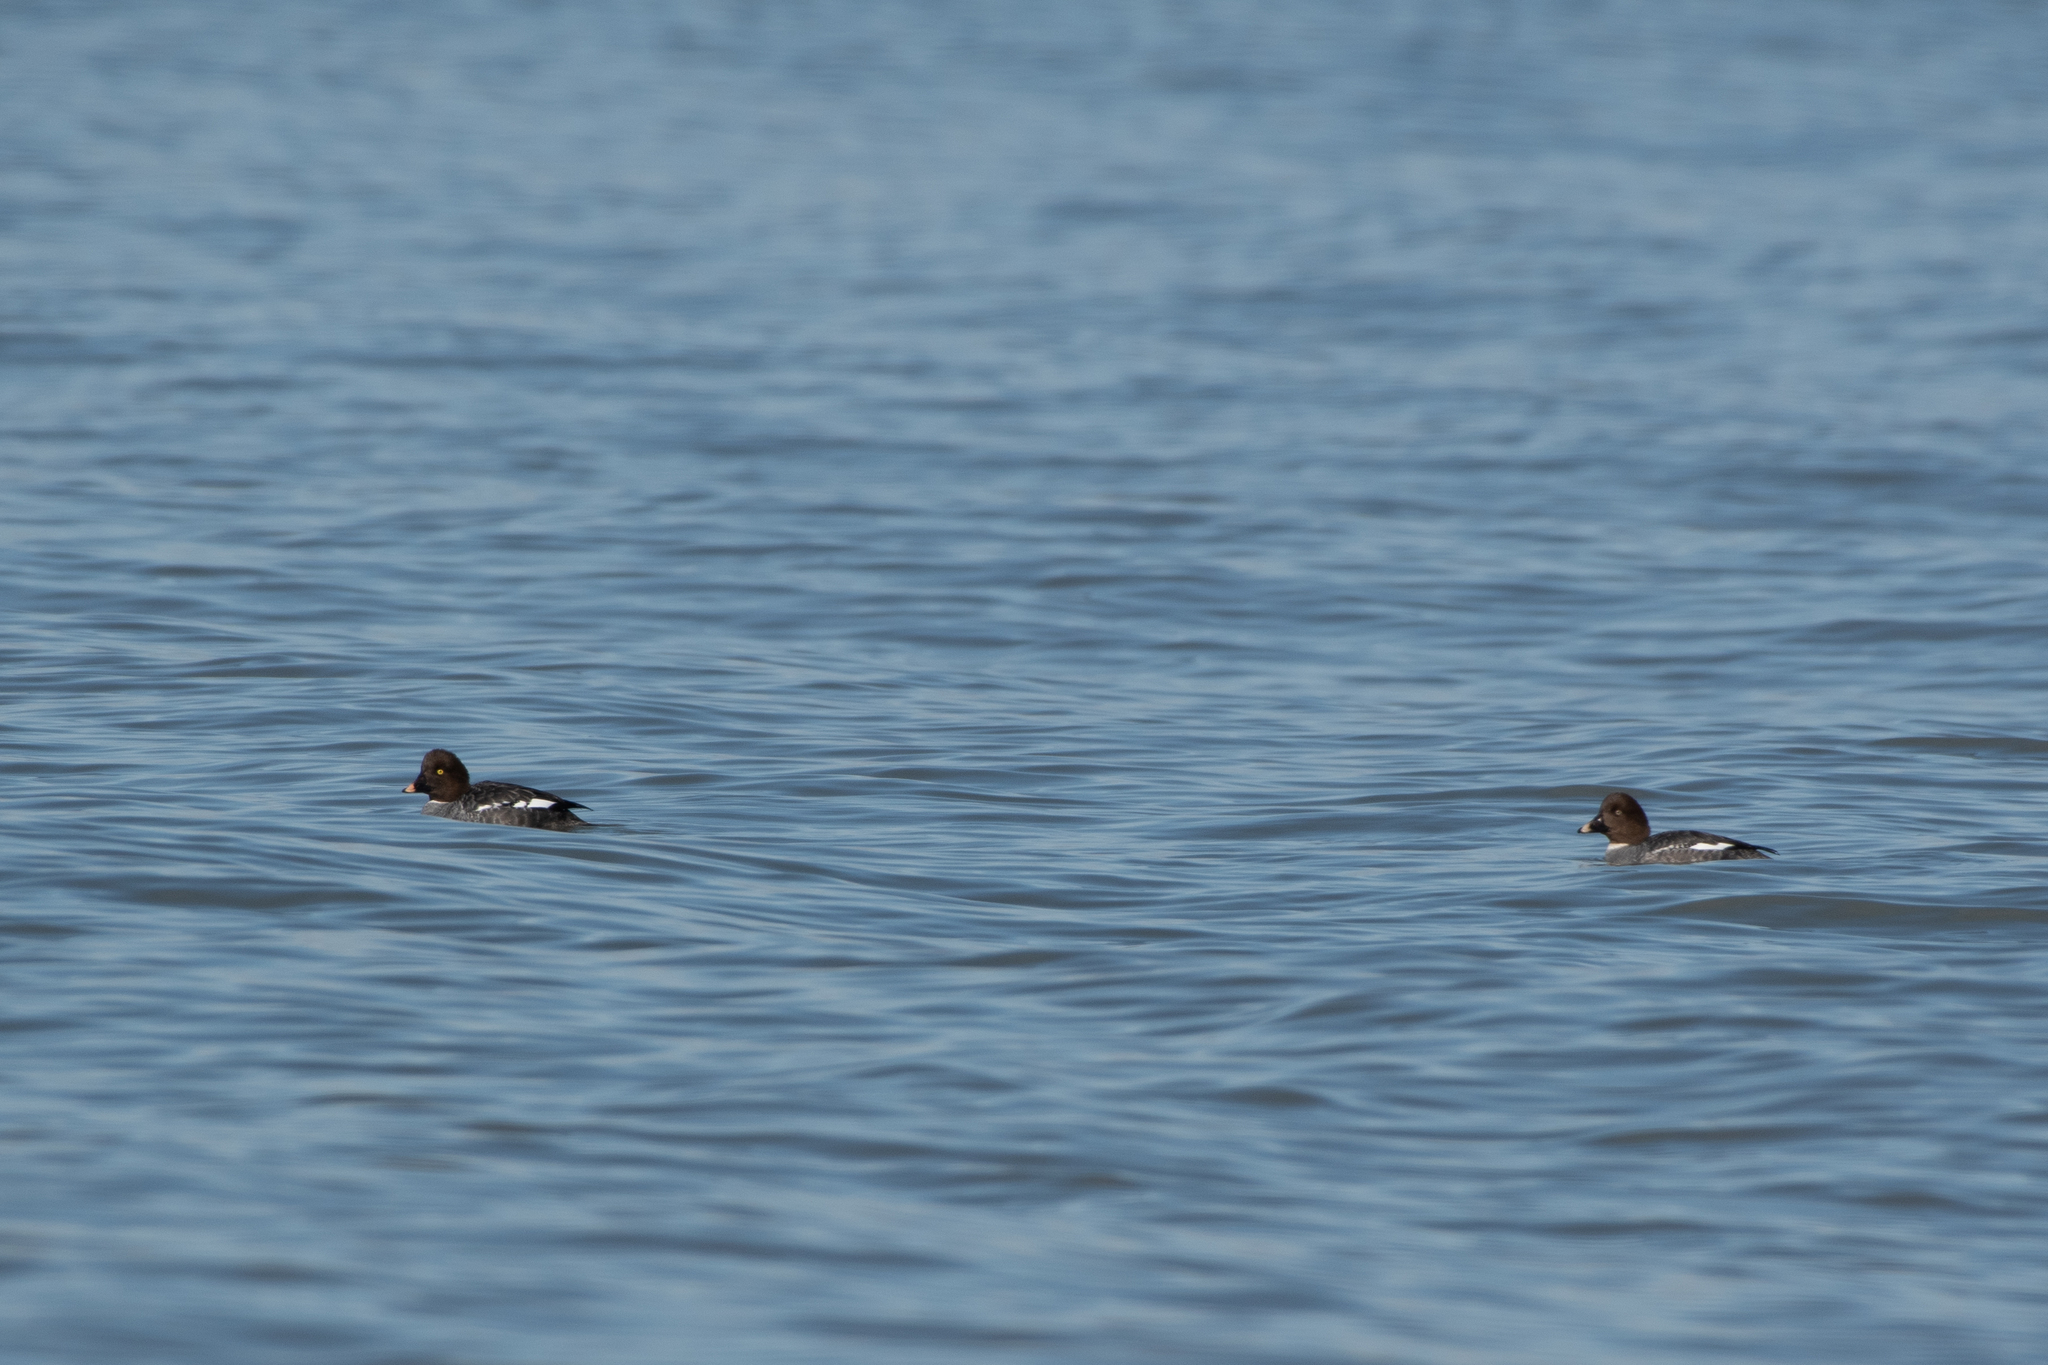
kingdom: Animalia
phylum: Chordata
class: Aves
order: Anseriformes
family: Anatidae
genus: Bucephala
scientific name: Bucephala clangula
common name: Common goldeneye
